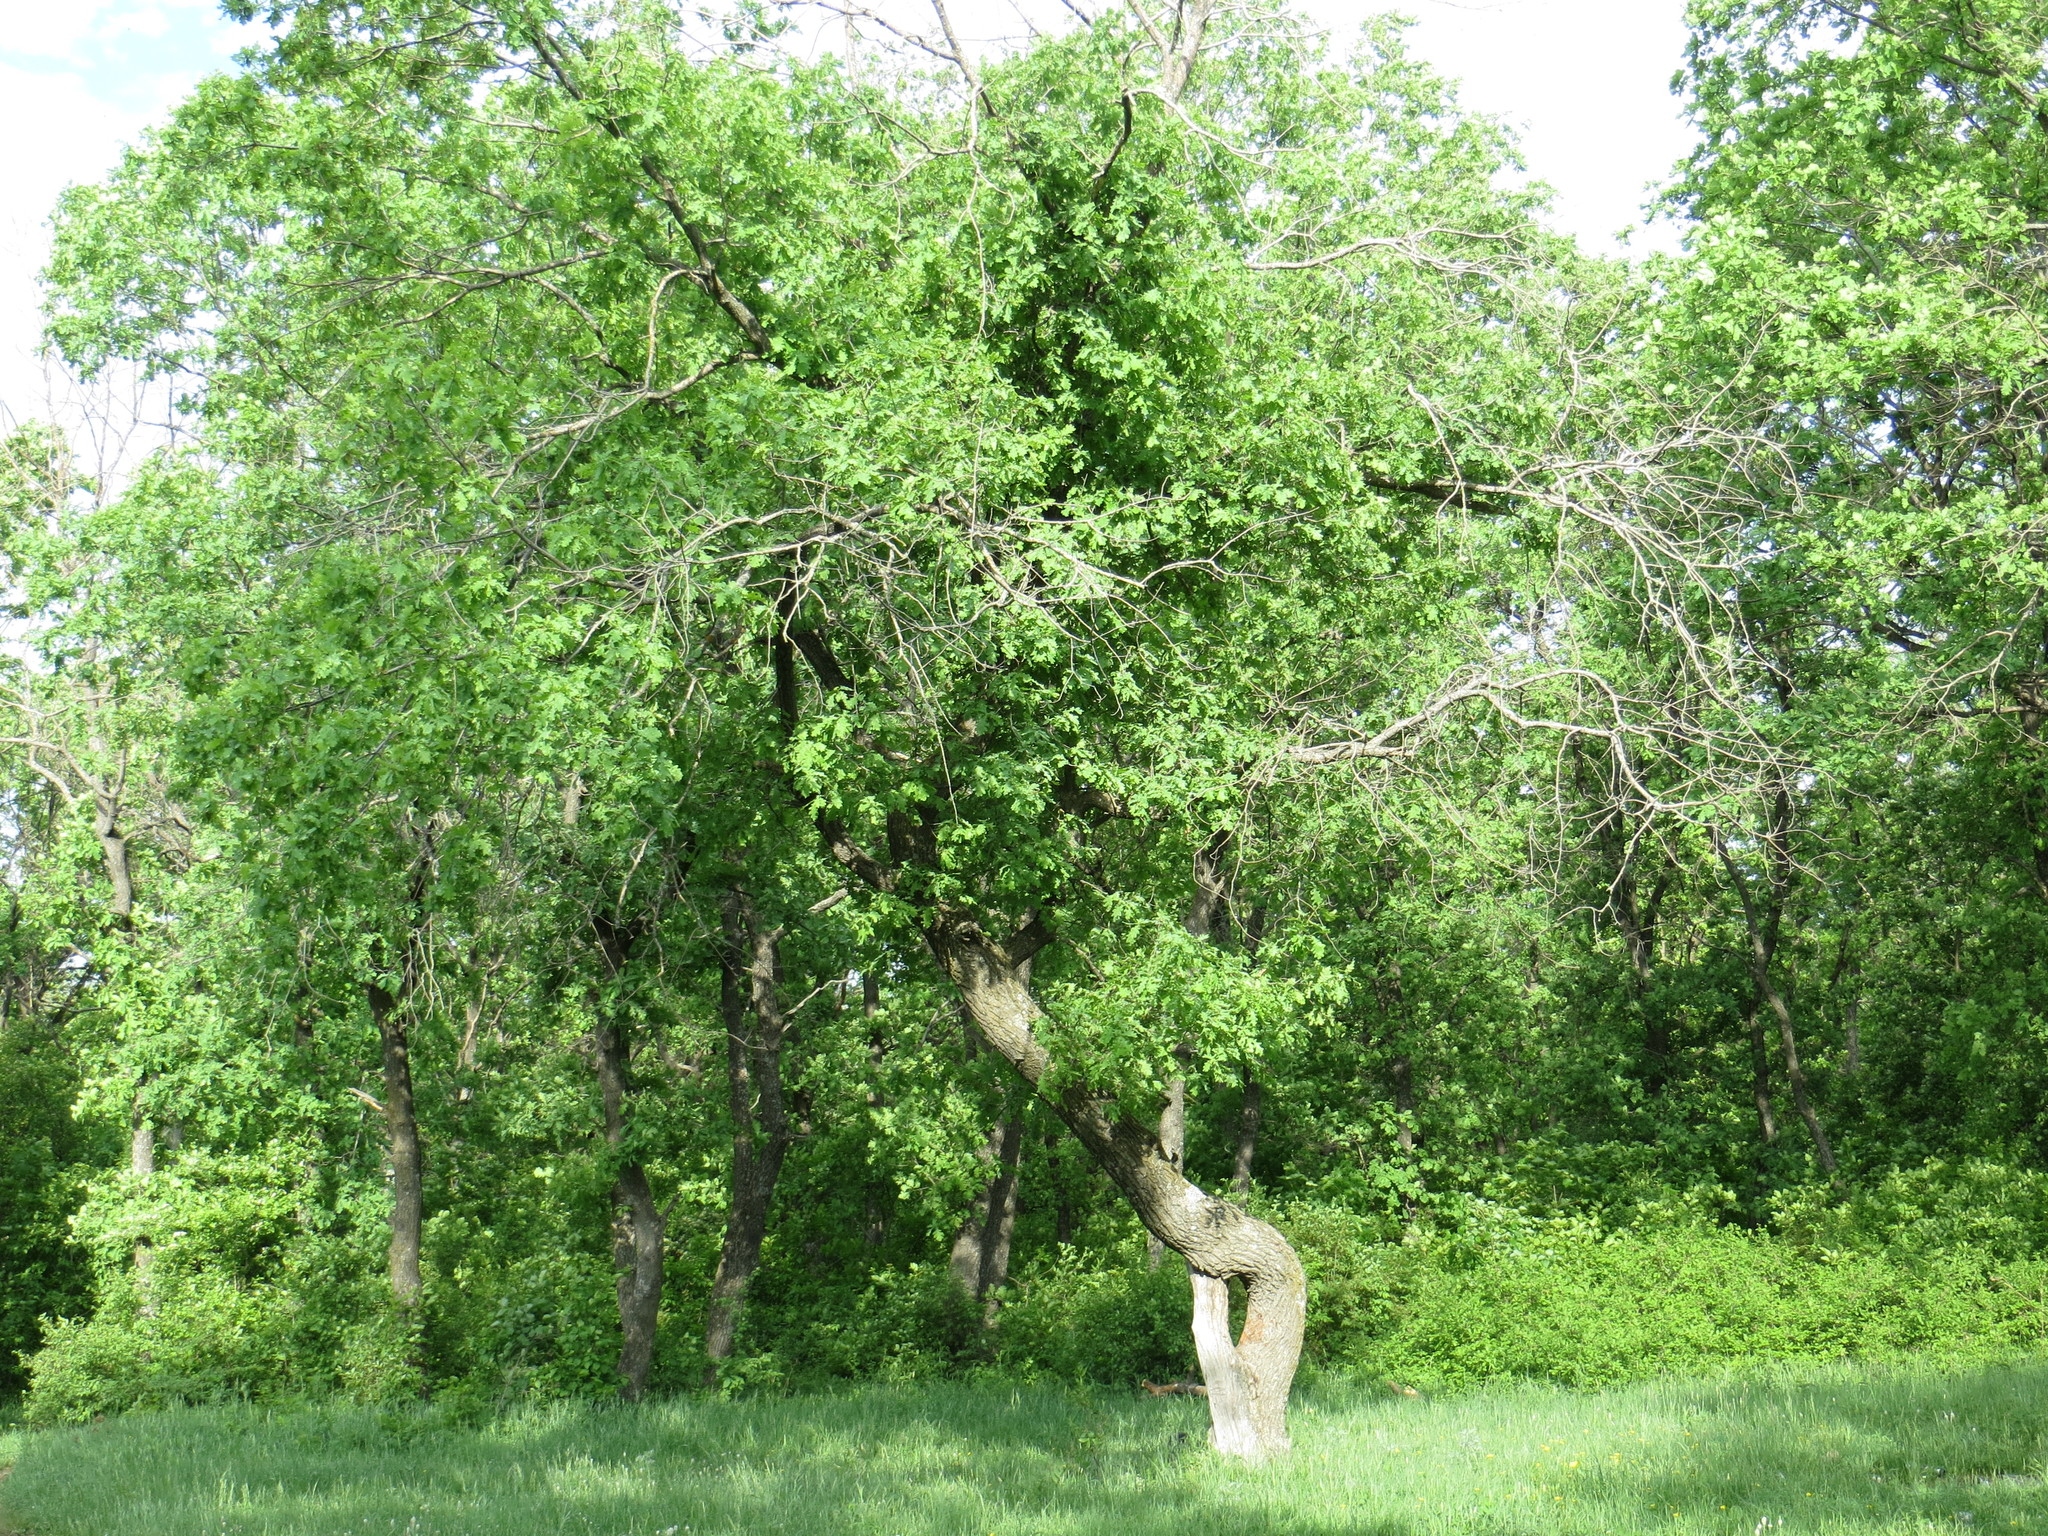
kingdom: Plantae
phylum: Tracheophyta
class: Magnoliopsida
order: Fagales
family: Fagaceae
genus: Quercus
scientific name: Quercus robur
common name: Pedunculate oak
